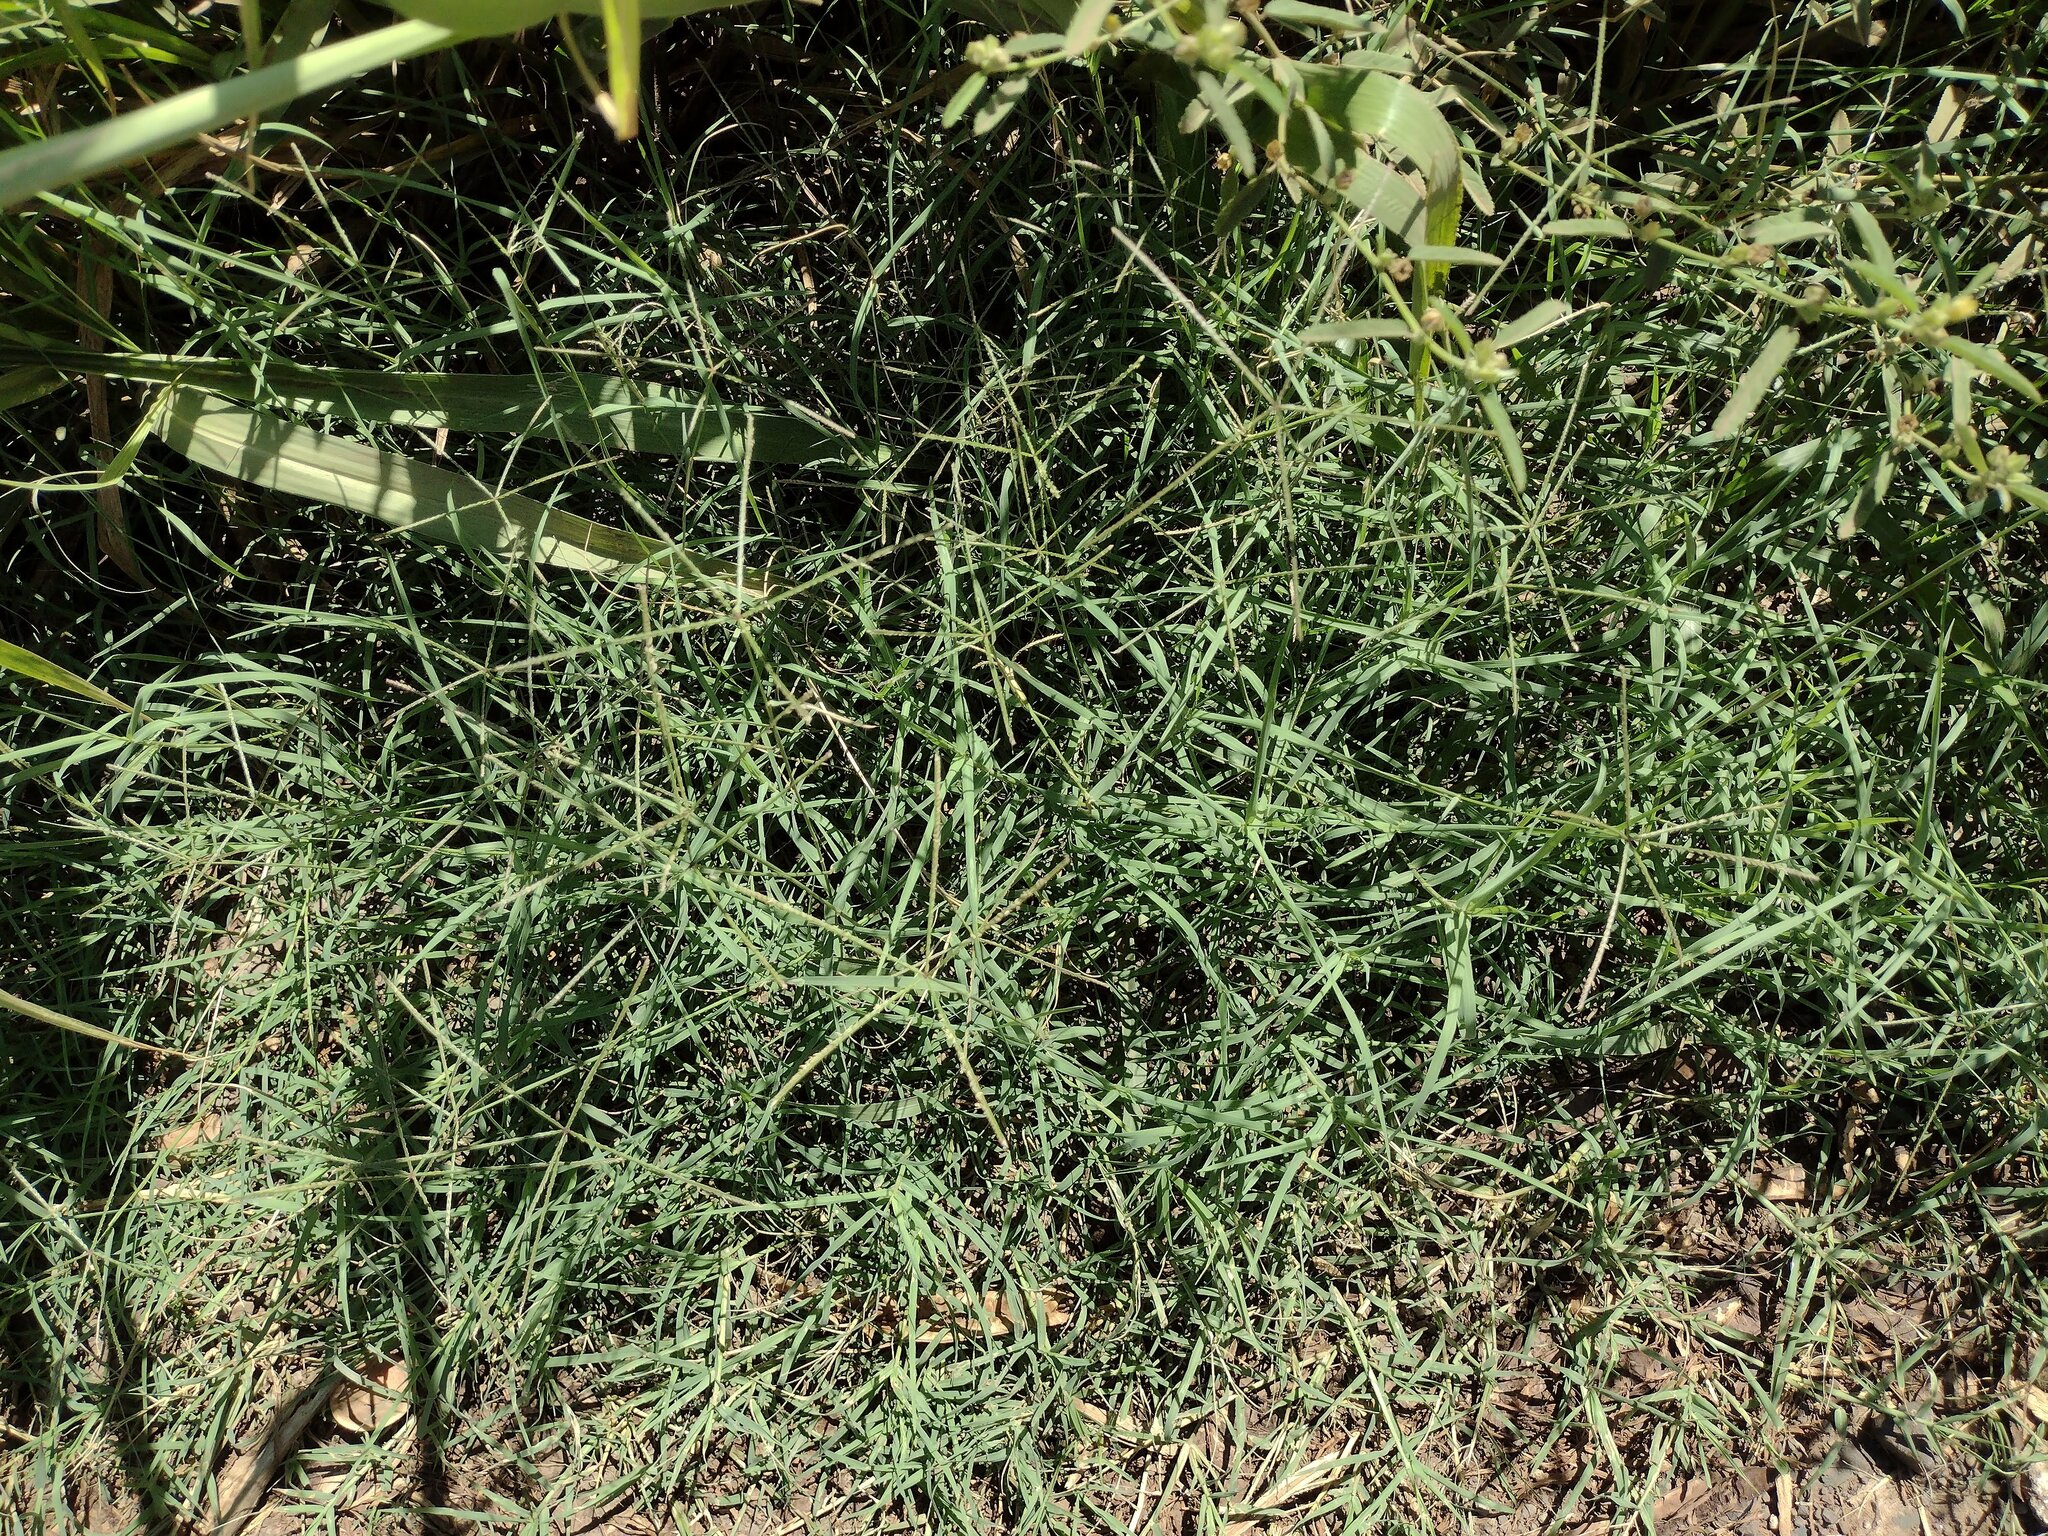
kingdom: Plantae
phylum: Tracheophyta
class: Liliopsida
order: Poales
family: Poaceae
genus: Cynodon
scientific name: Cynodon dactylon
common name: Bermuda grass
